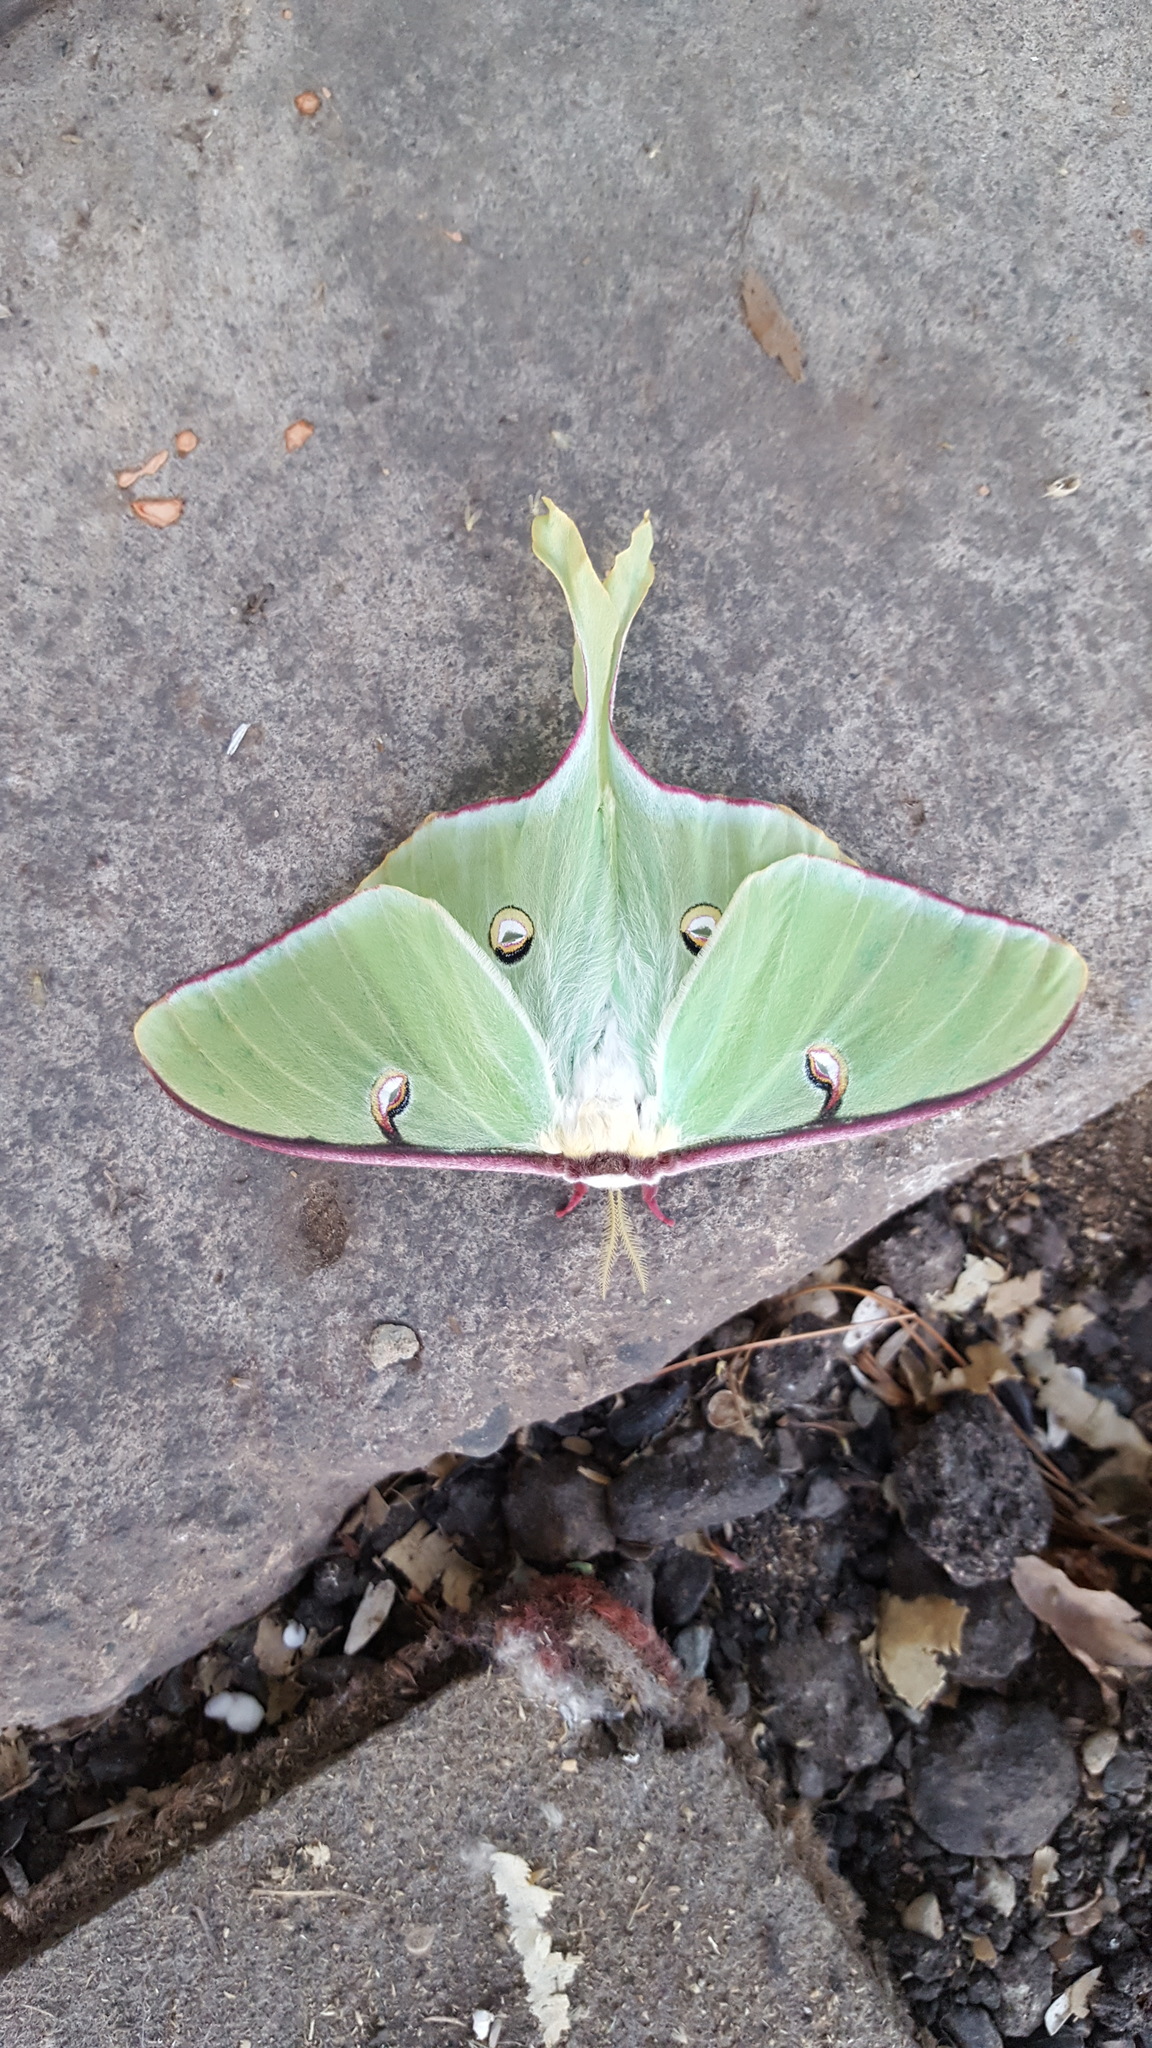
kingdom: Animalia
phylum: Arthropoda
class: Insecta
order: Lepidoptera
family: Saturniidae
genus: Actias
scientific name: Actias luna
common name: Luna moth
